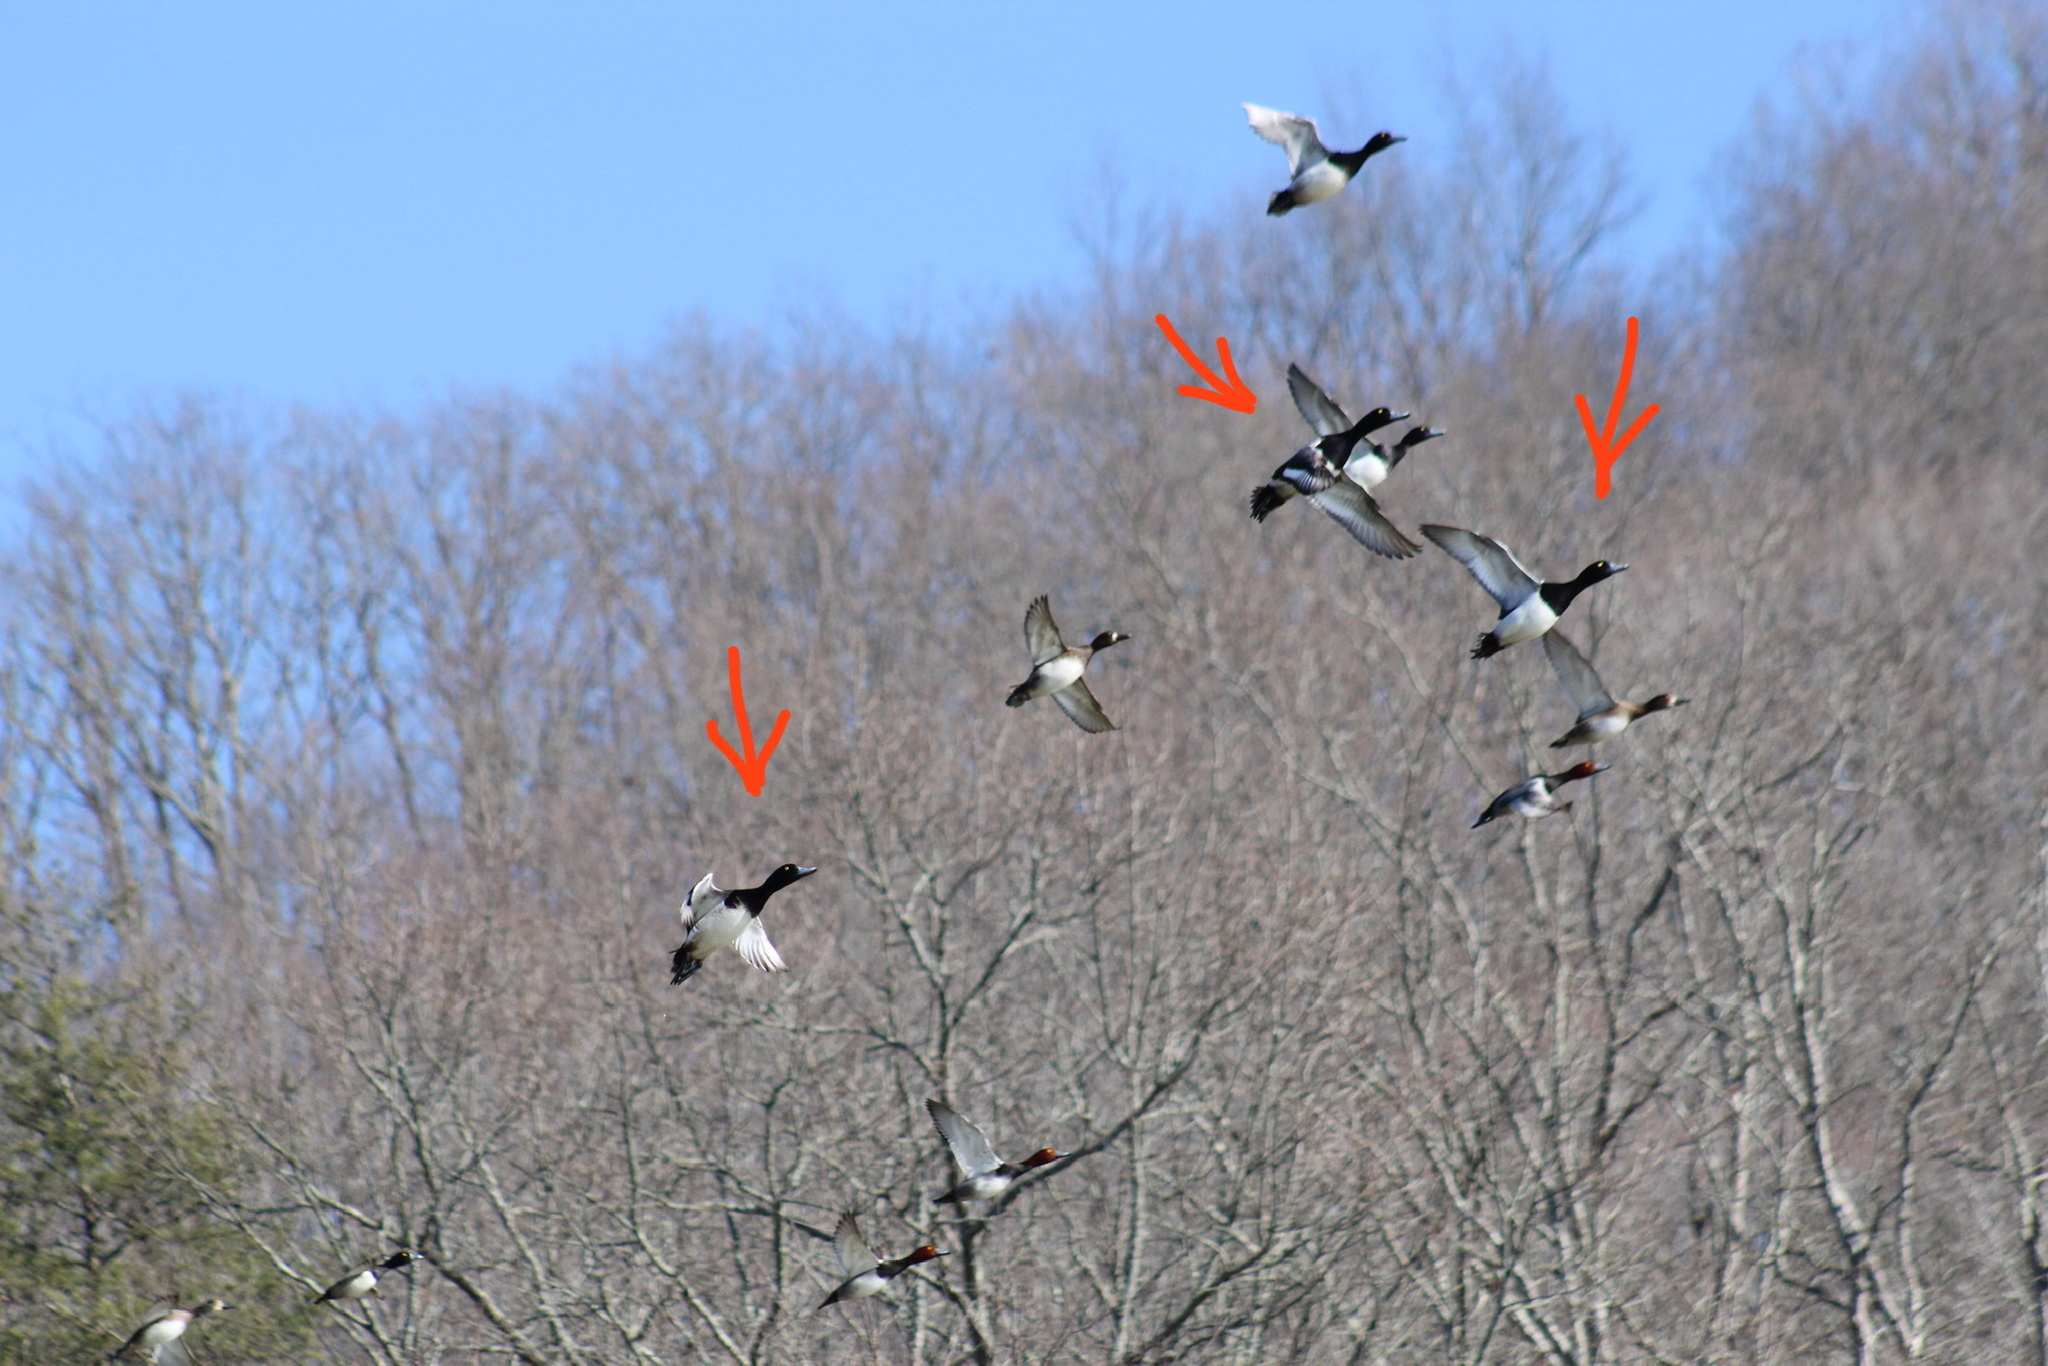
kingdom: Animalia
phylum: Chordata
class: Aves
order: Anseriformes
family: Anatidae
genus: Aythya
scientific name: Aythya marila
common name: Greater scaup
